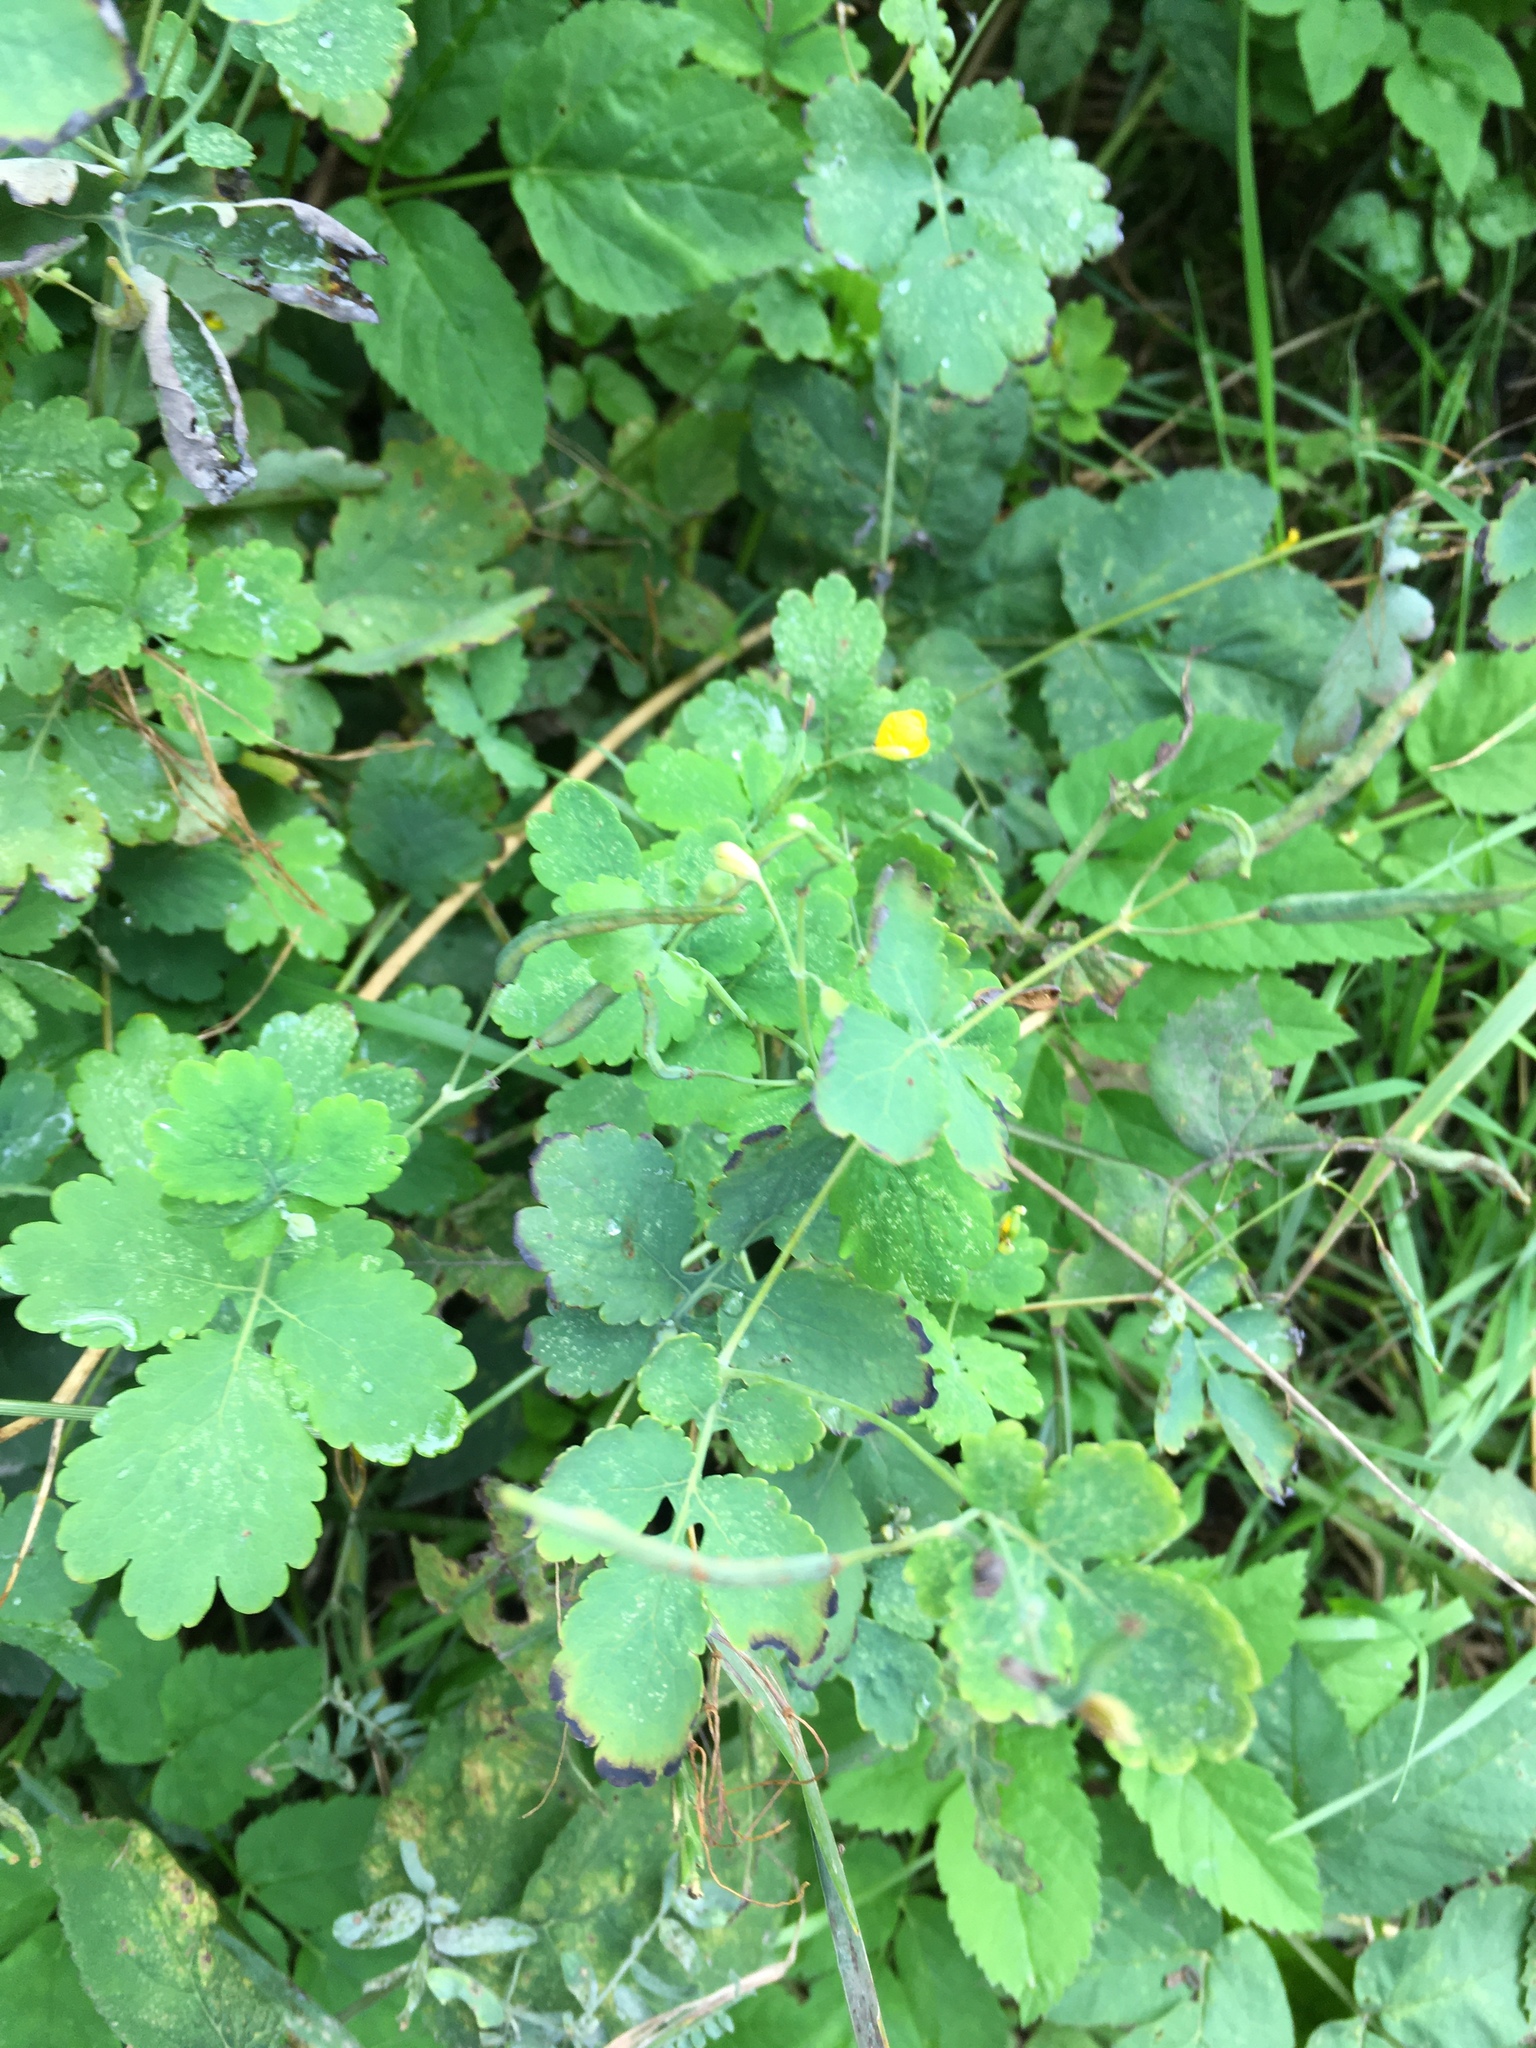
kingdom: Plantae
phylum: Tracheophyta
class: Magnoliopsida
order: Ranunculales
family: Papaveraceae
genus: Chelidonium
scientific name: Chelidonium majus
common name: Greater celandine
